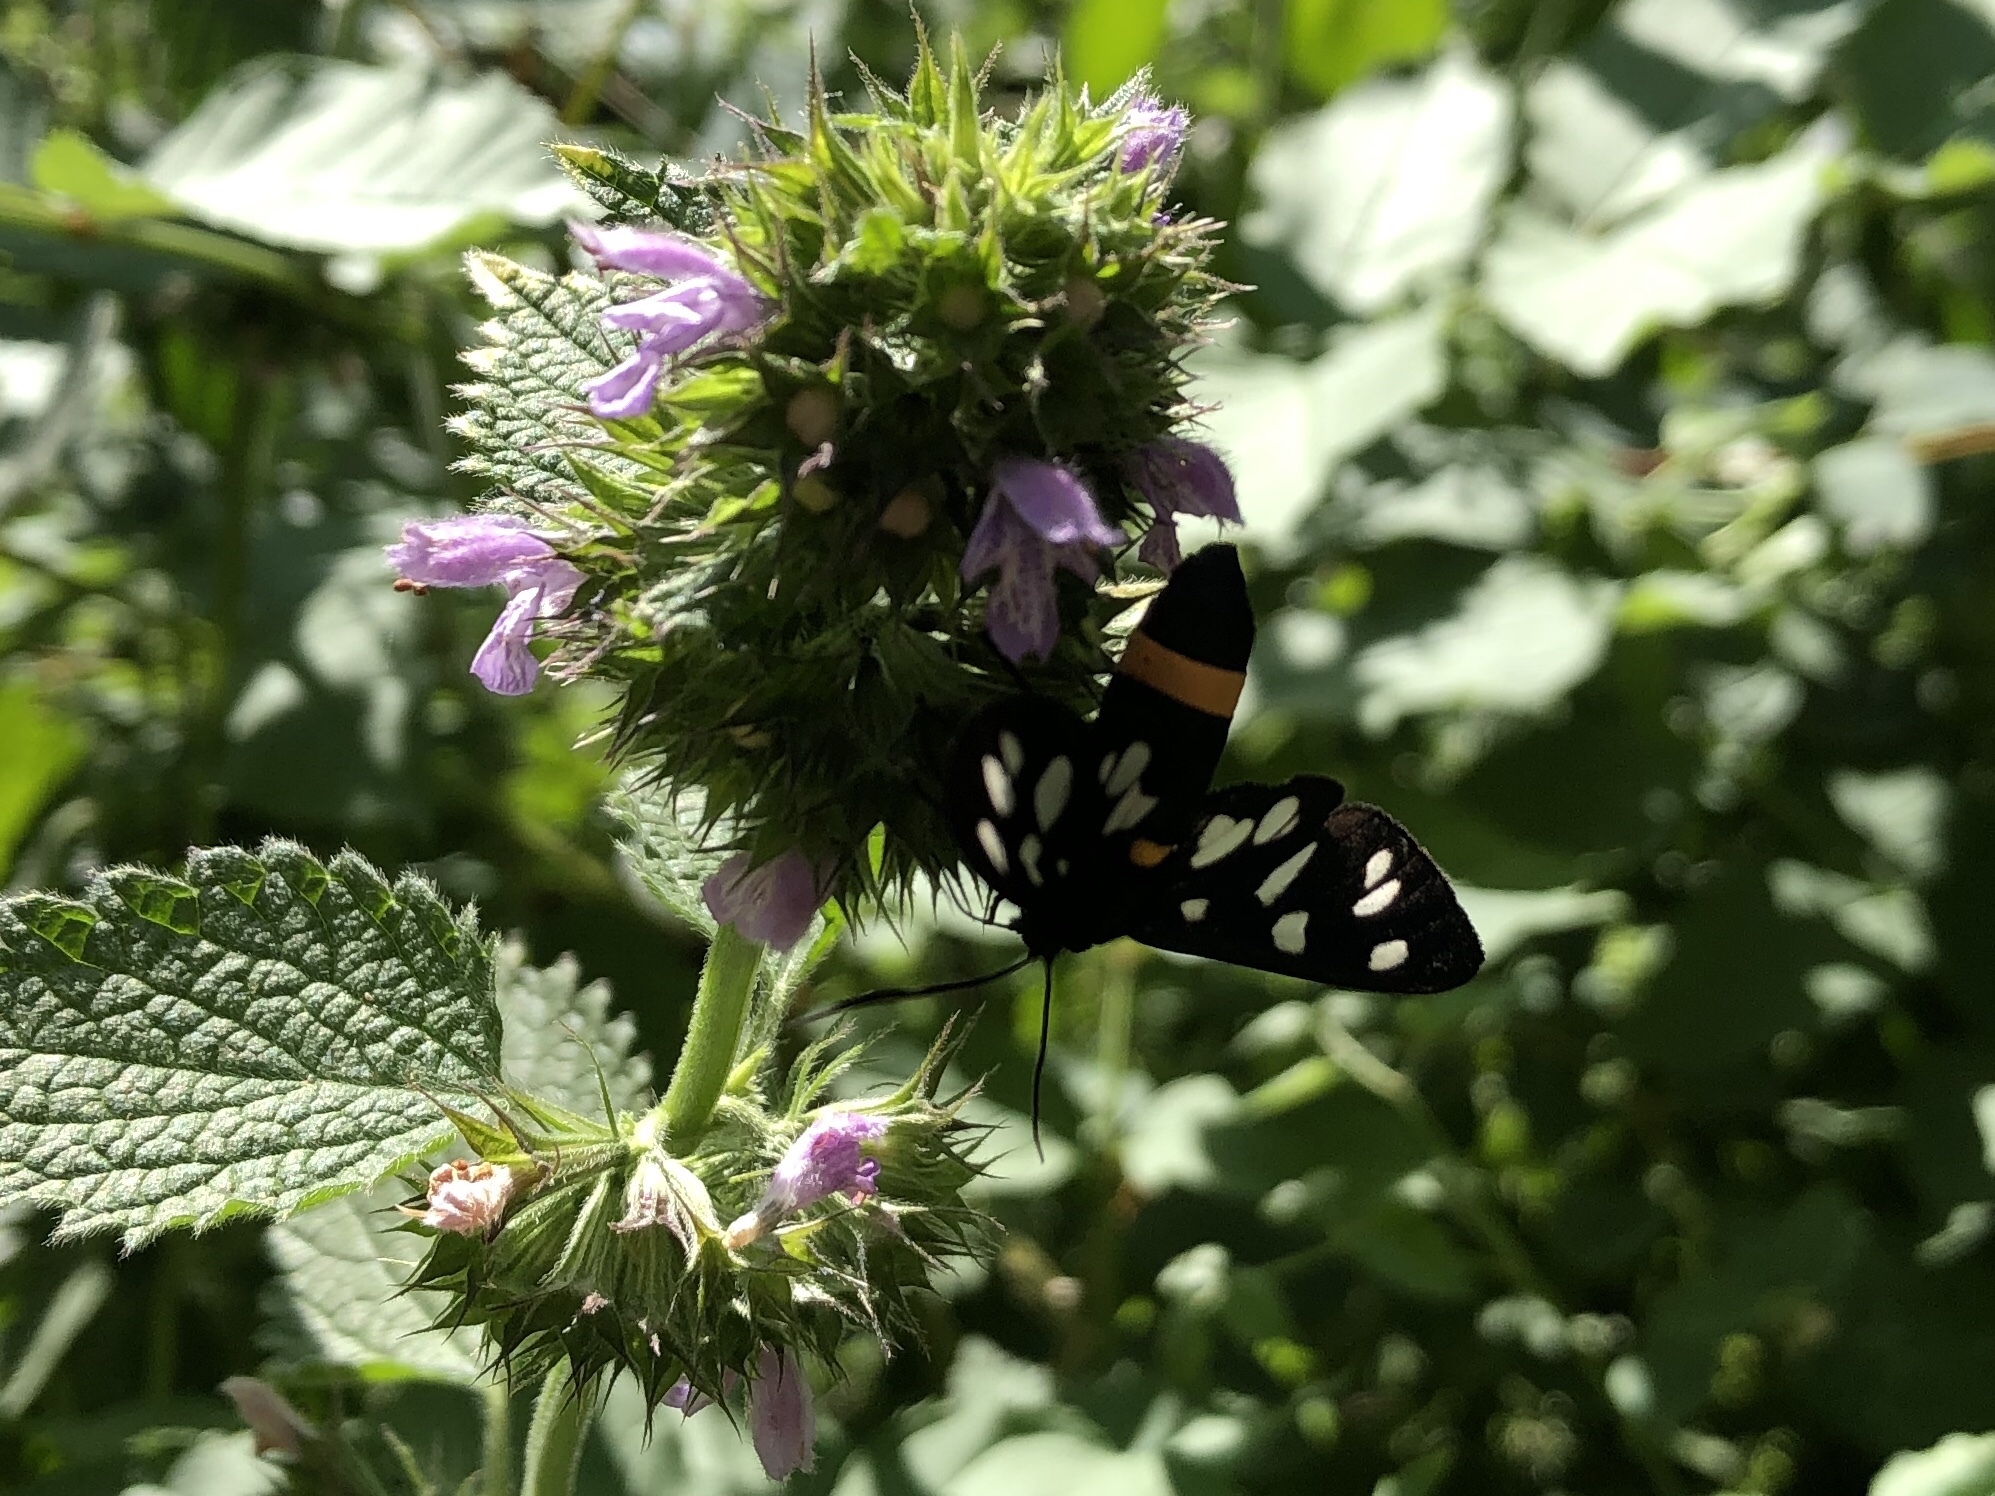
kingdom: Animalia
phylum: Arthropoda
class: Insecta
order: Lepidoptera
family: Erebidae
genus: Amata
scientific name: Amata phegea
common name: Nine-spotted
